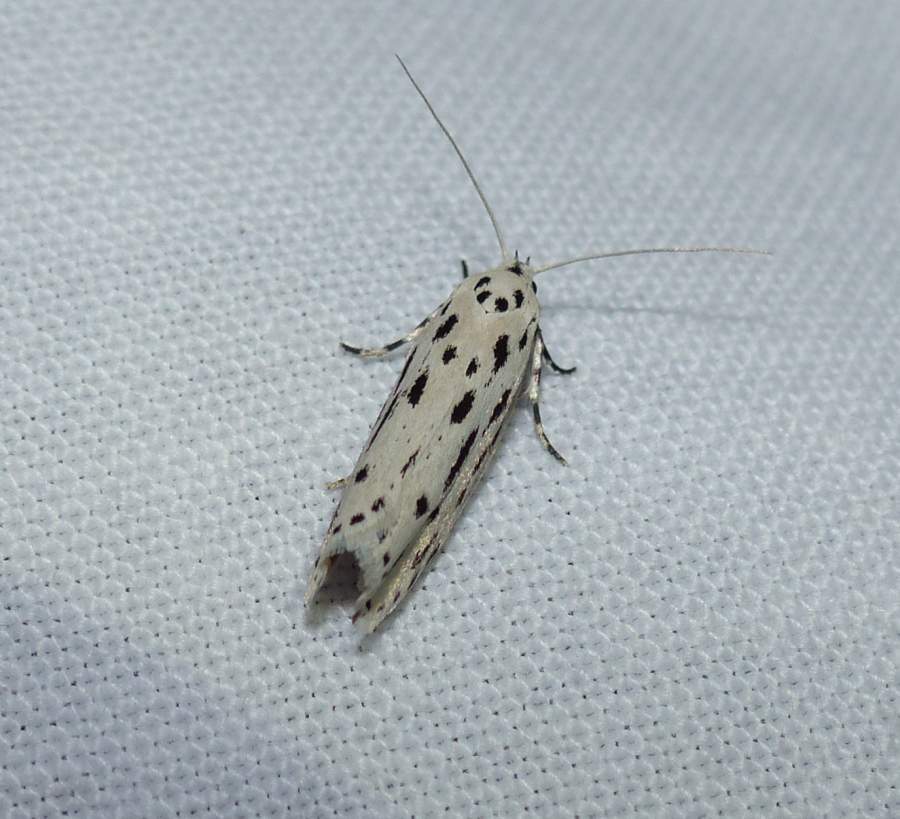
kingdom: Animalia
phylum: Arthropoda
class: Insecta
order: Lepidoptera
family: Ethmiidae
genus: Ethmia
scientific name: Ethmia longimaculella
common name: Streaked ethmia moth
